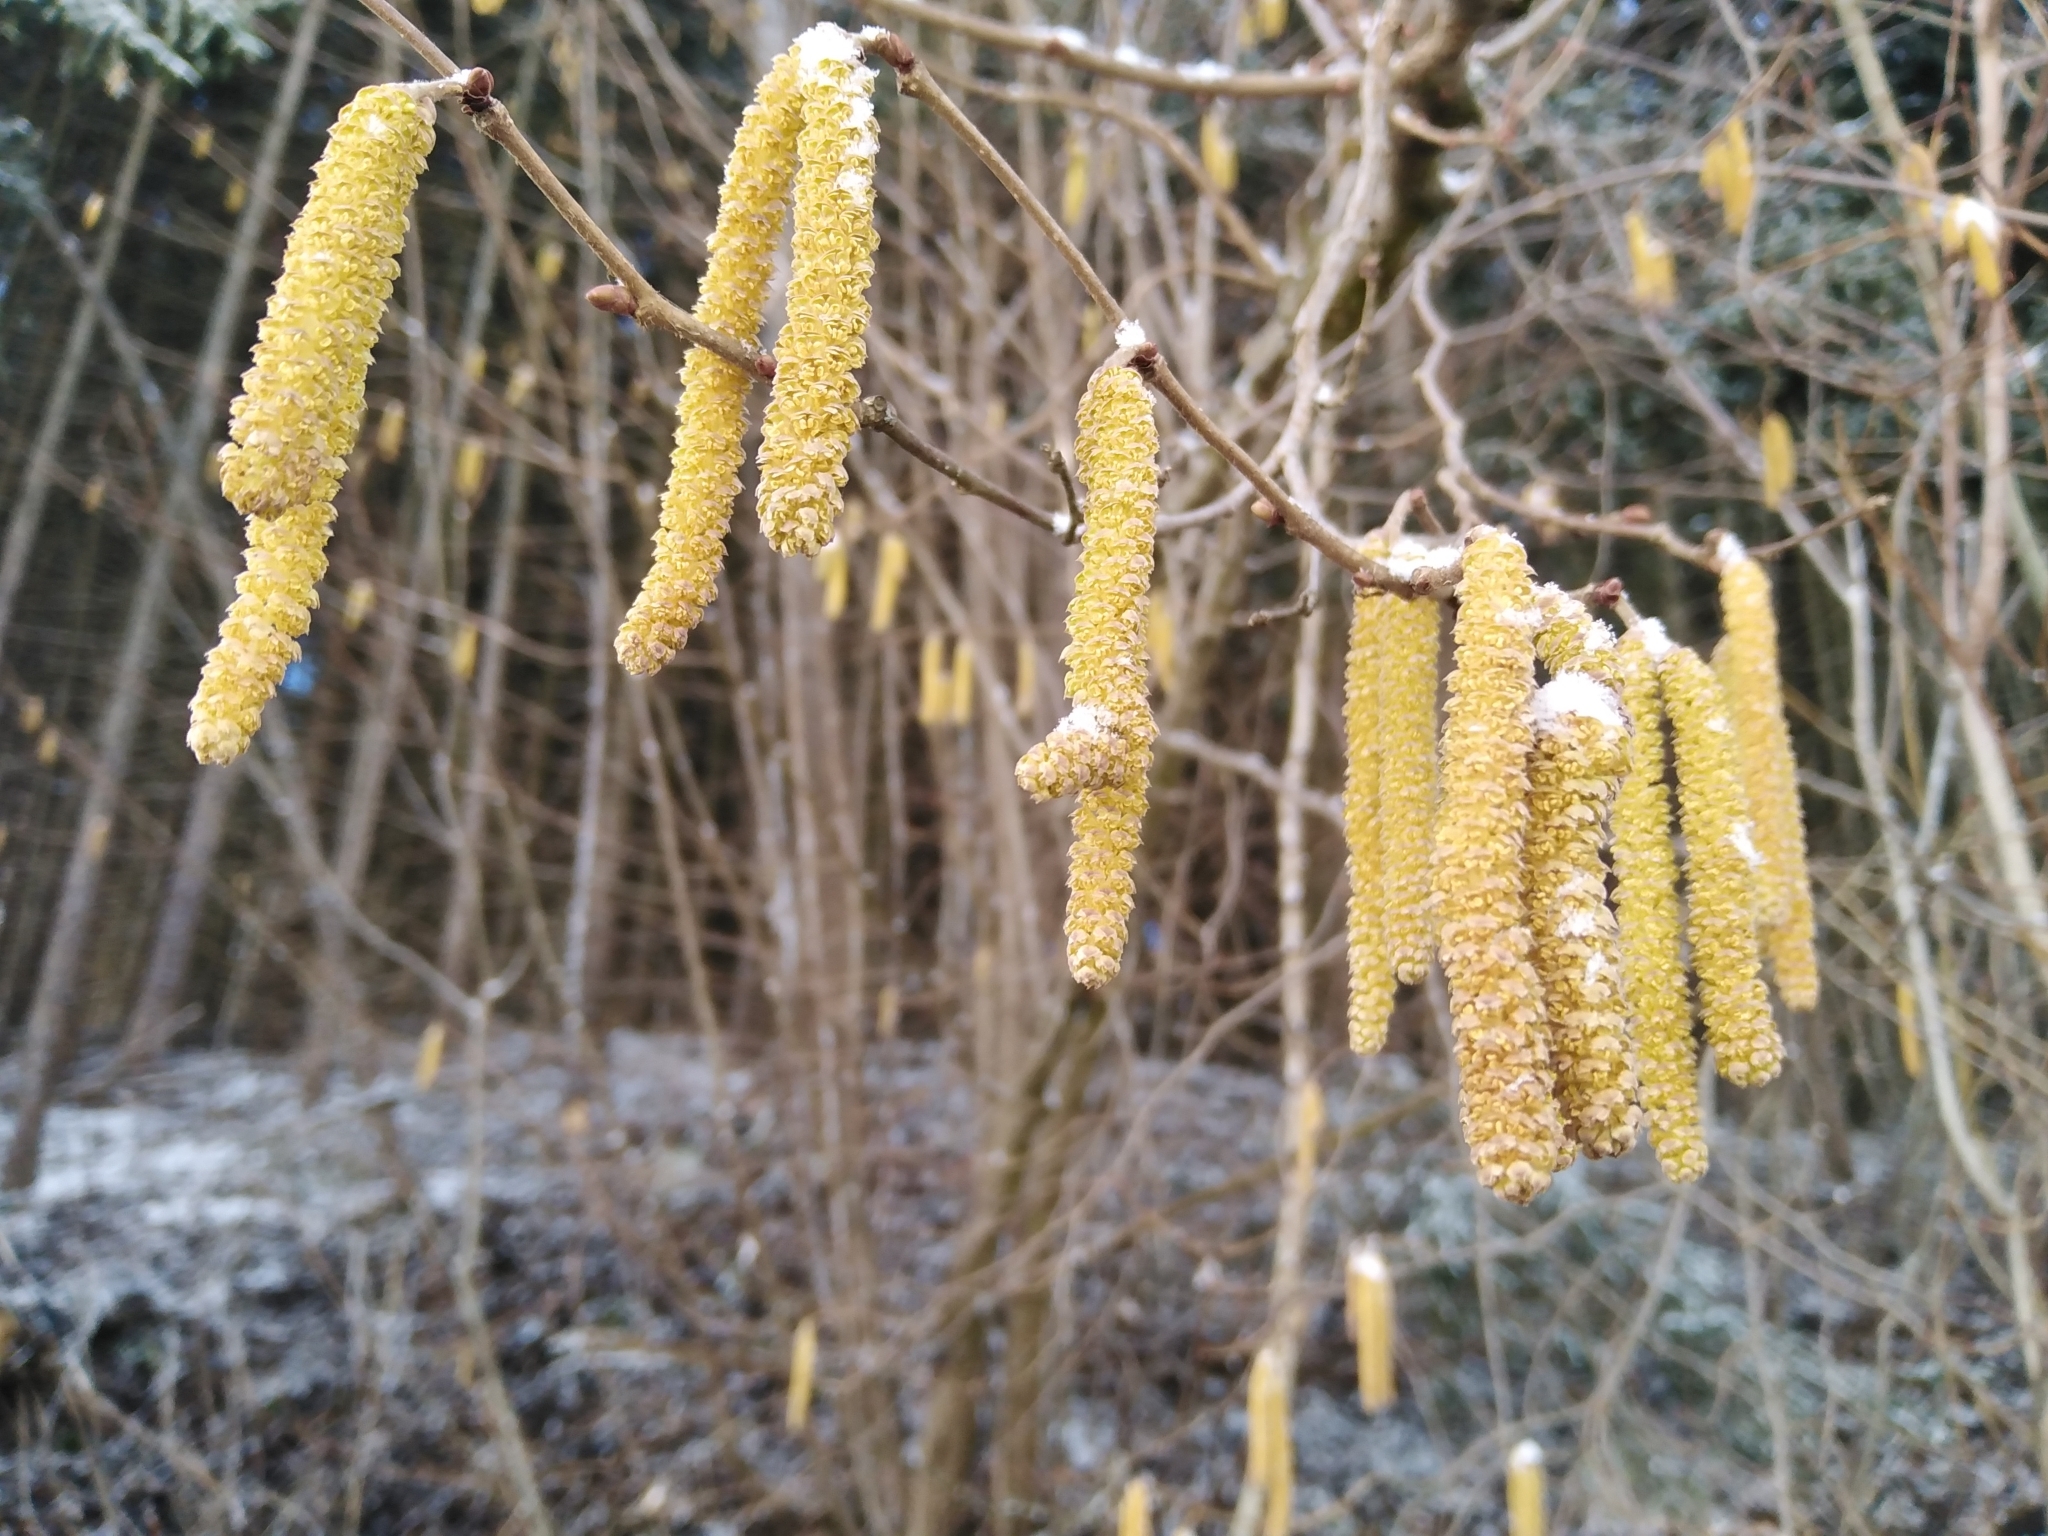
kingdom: Plantae
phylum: Tracheophyta
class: Magnoliopsida
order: Fagales
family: Betulaceae
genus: Corylus
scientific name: Corylus avellana
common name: European hazel
